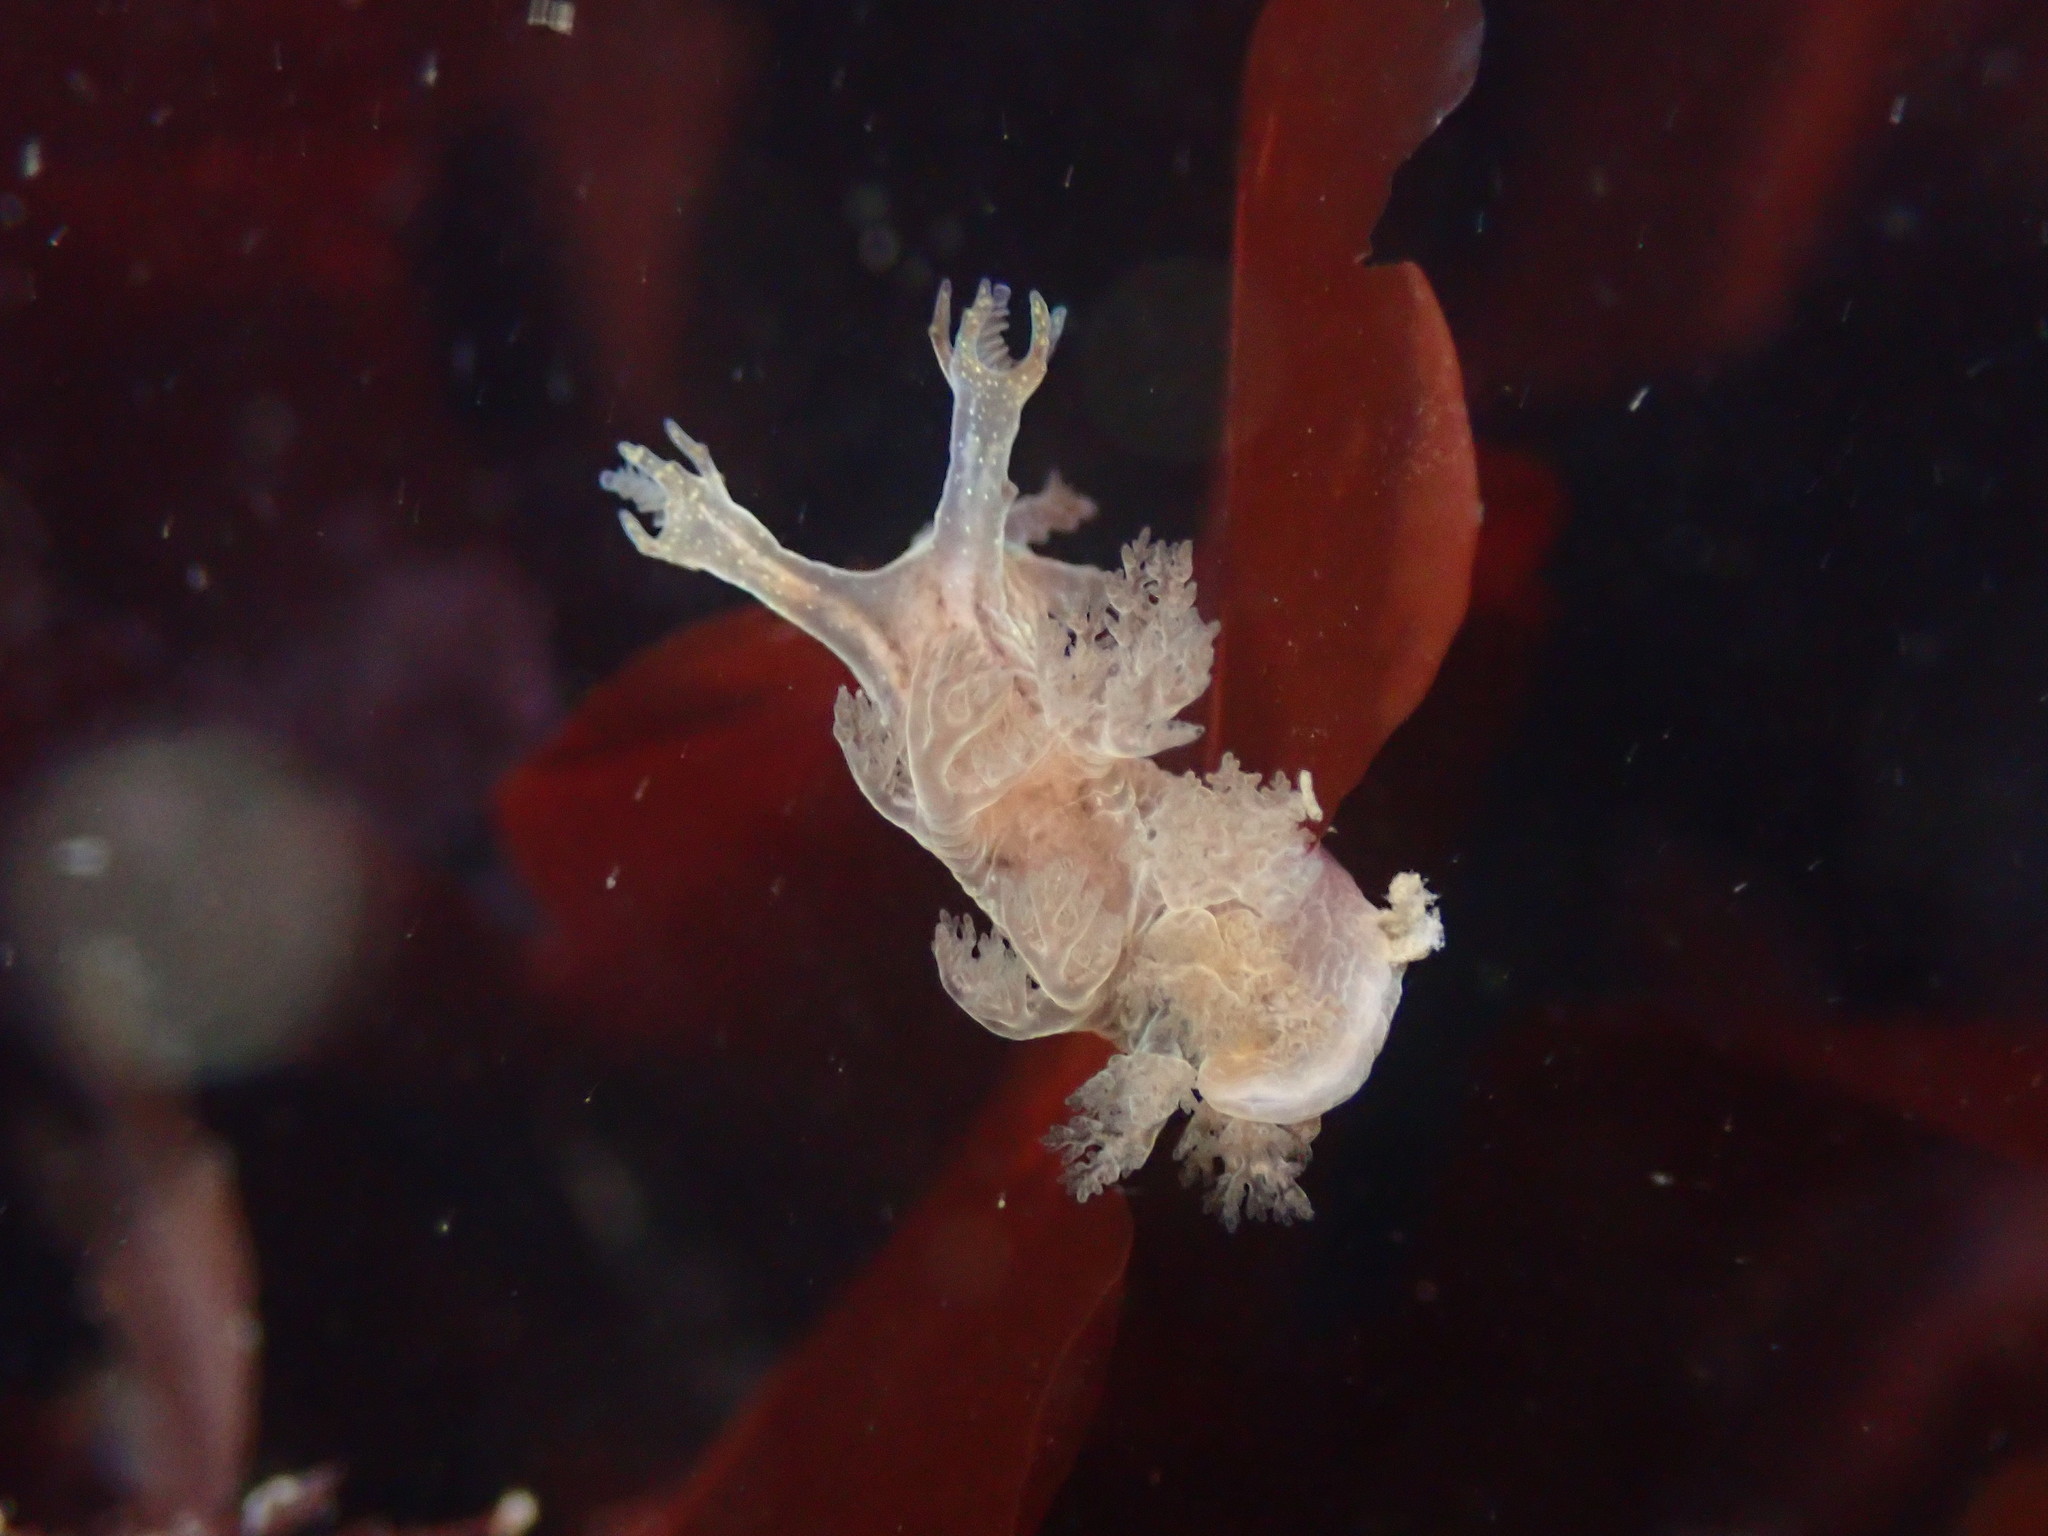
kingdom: Animalia
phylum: Mollusca
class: Gastropoda
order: Nudibranchia
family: Dendronotidae
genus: Dendronotus
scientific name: Dendronotus subramosus
